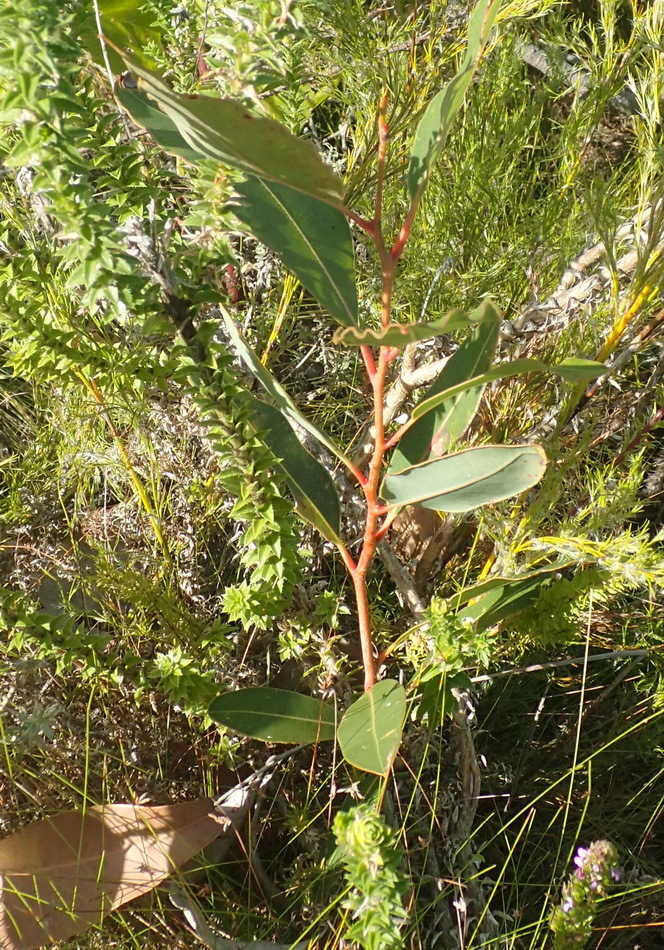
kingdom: Plantae
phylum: Tracheophyta
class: Magnoliopsida
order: Myrtales
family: Myrtaceae
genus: Corymbia
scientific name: Corymbia ficifolia
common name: Redflower gum
